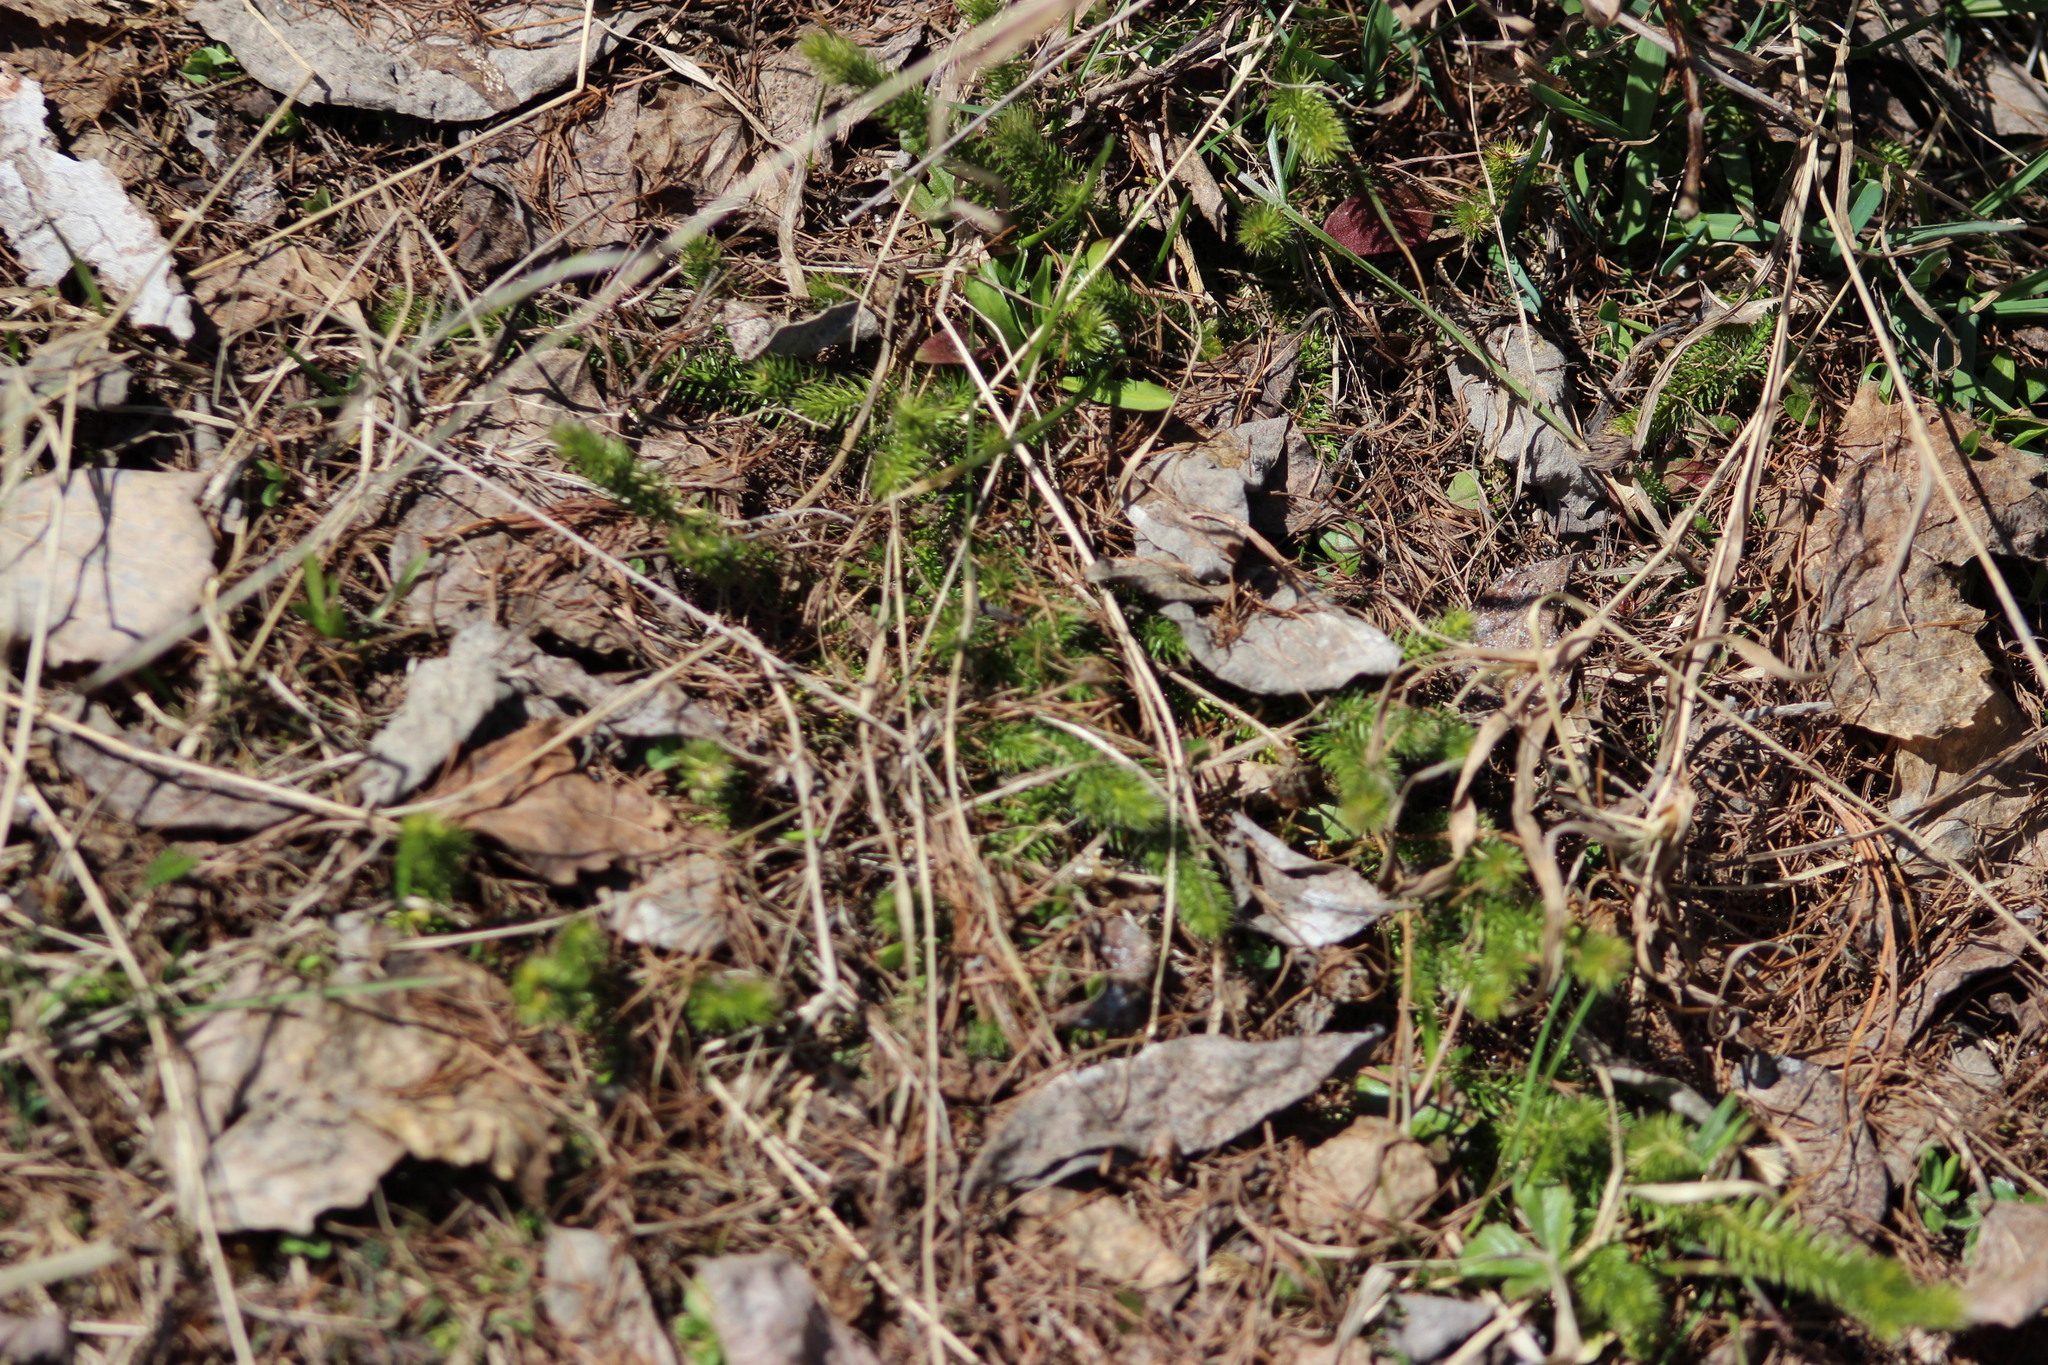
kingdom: Plantae
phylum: Tracheophyta
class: Lycopodiopsida
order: Lycopodiales
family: Lycopodiaceae
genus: Lycopodium
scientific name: Lycopodium clavatum
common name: Stag's-horn clubmoss
